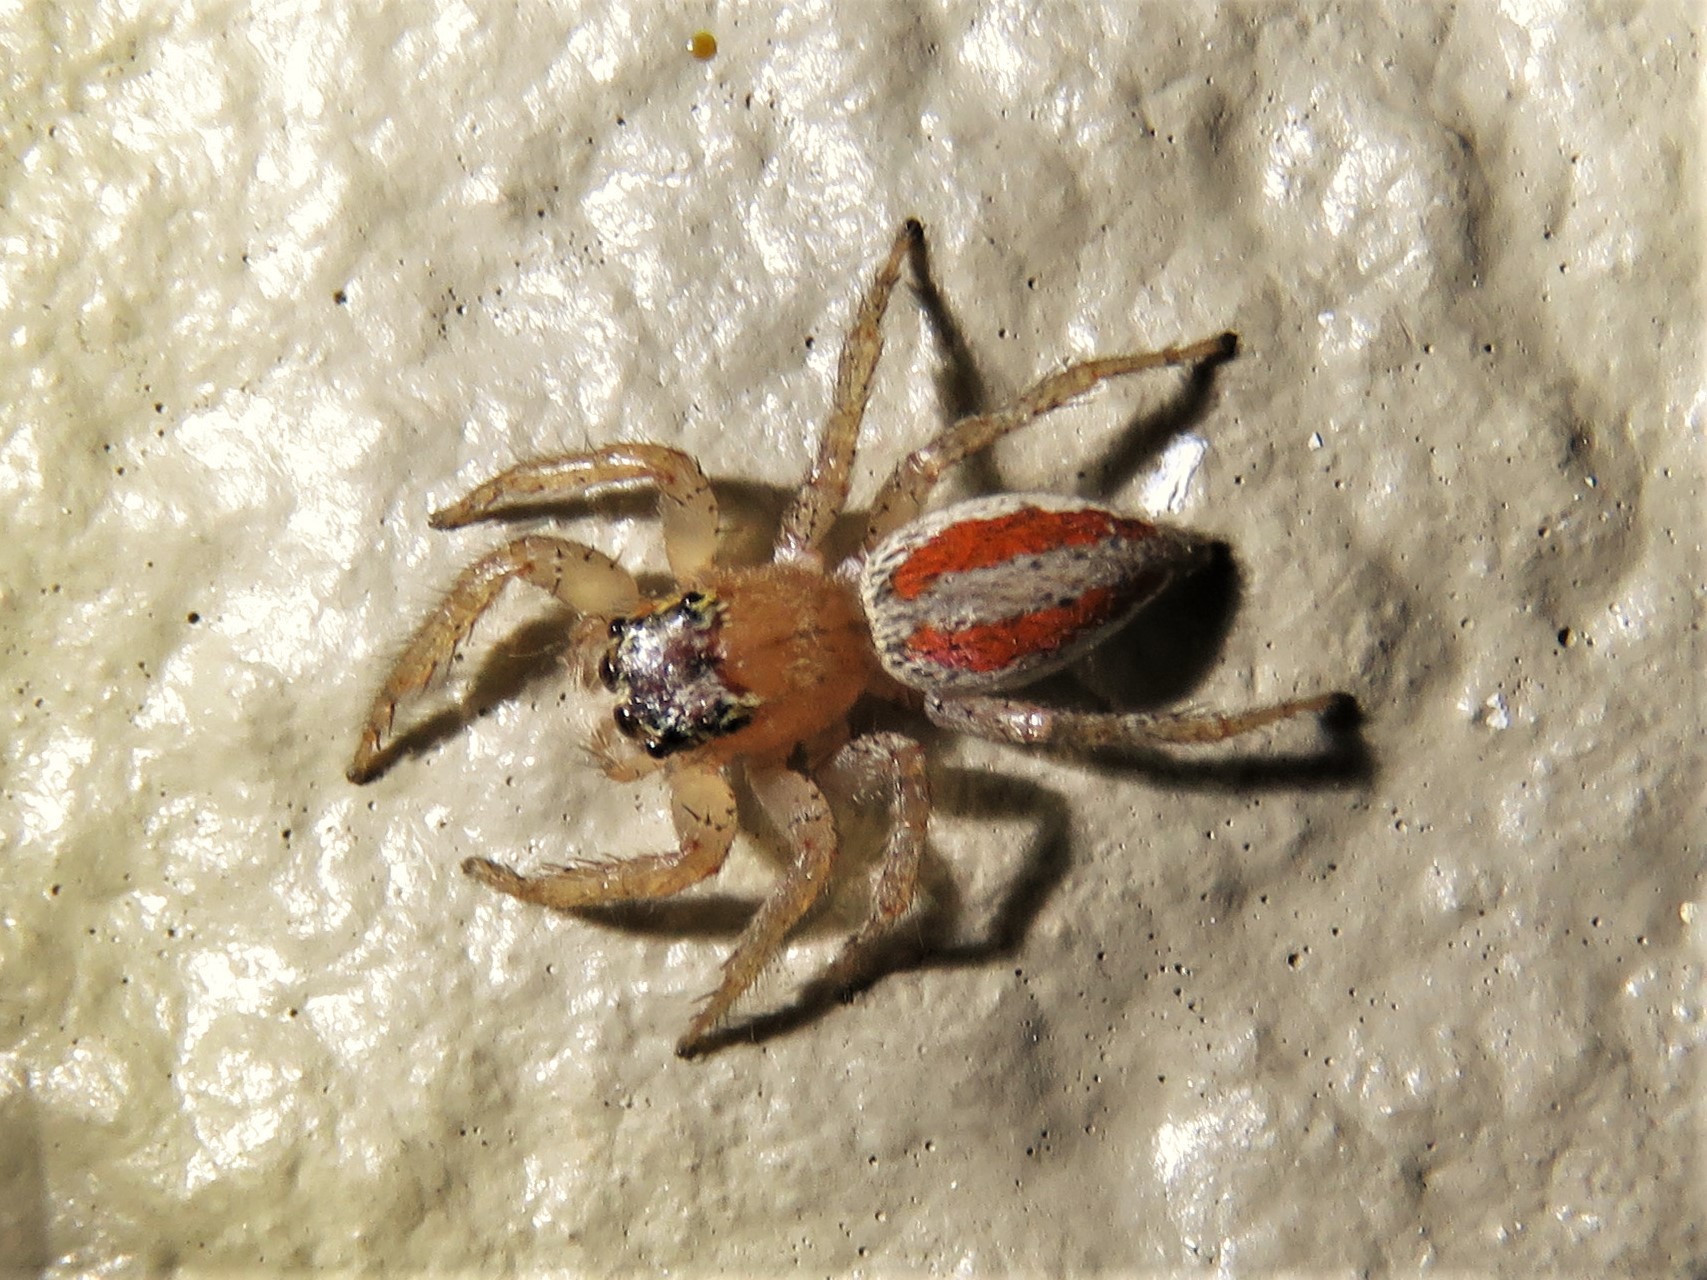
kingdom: Animalia
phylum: Arthropoda
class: Arachnida
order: Araneae
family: Salticidae
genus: Maevia
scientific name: Maevia inclemens
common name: Dimorphic jumper
